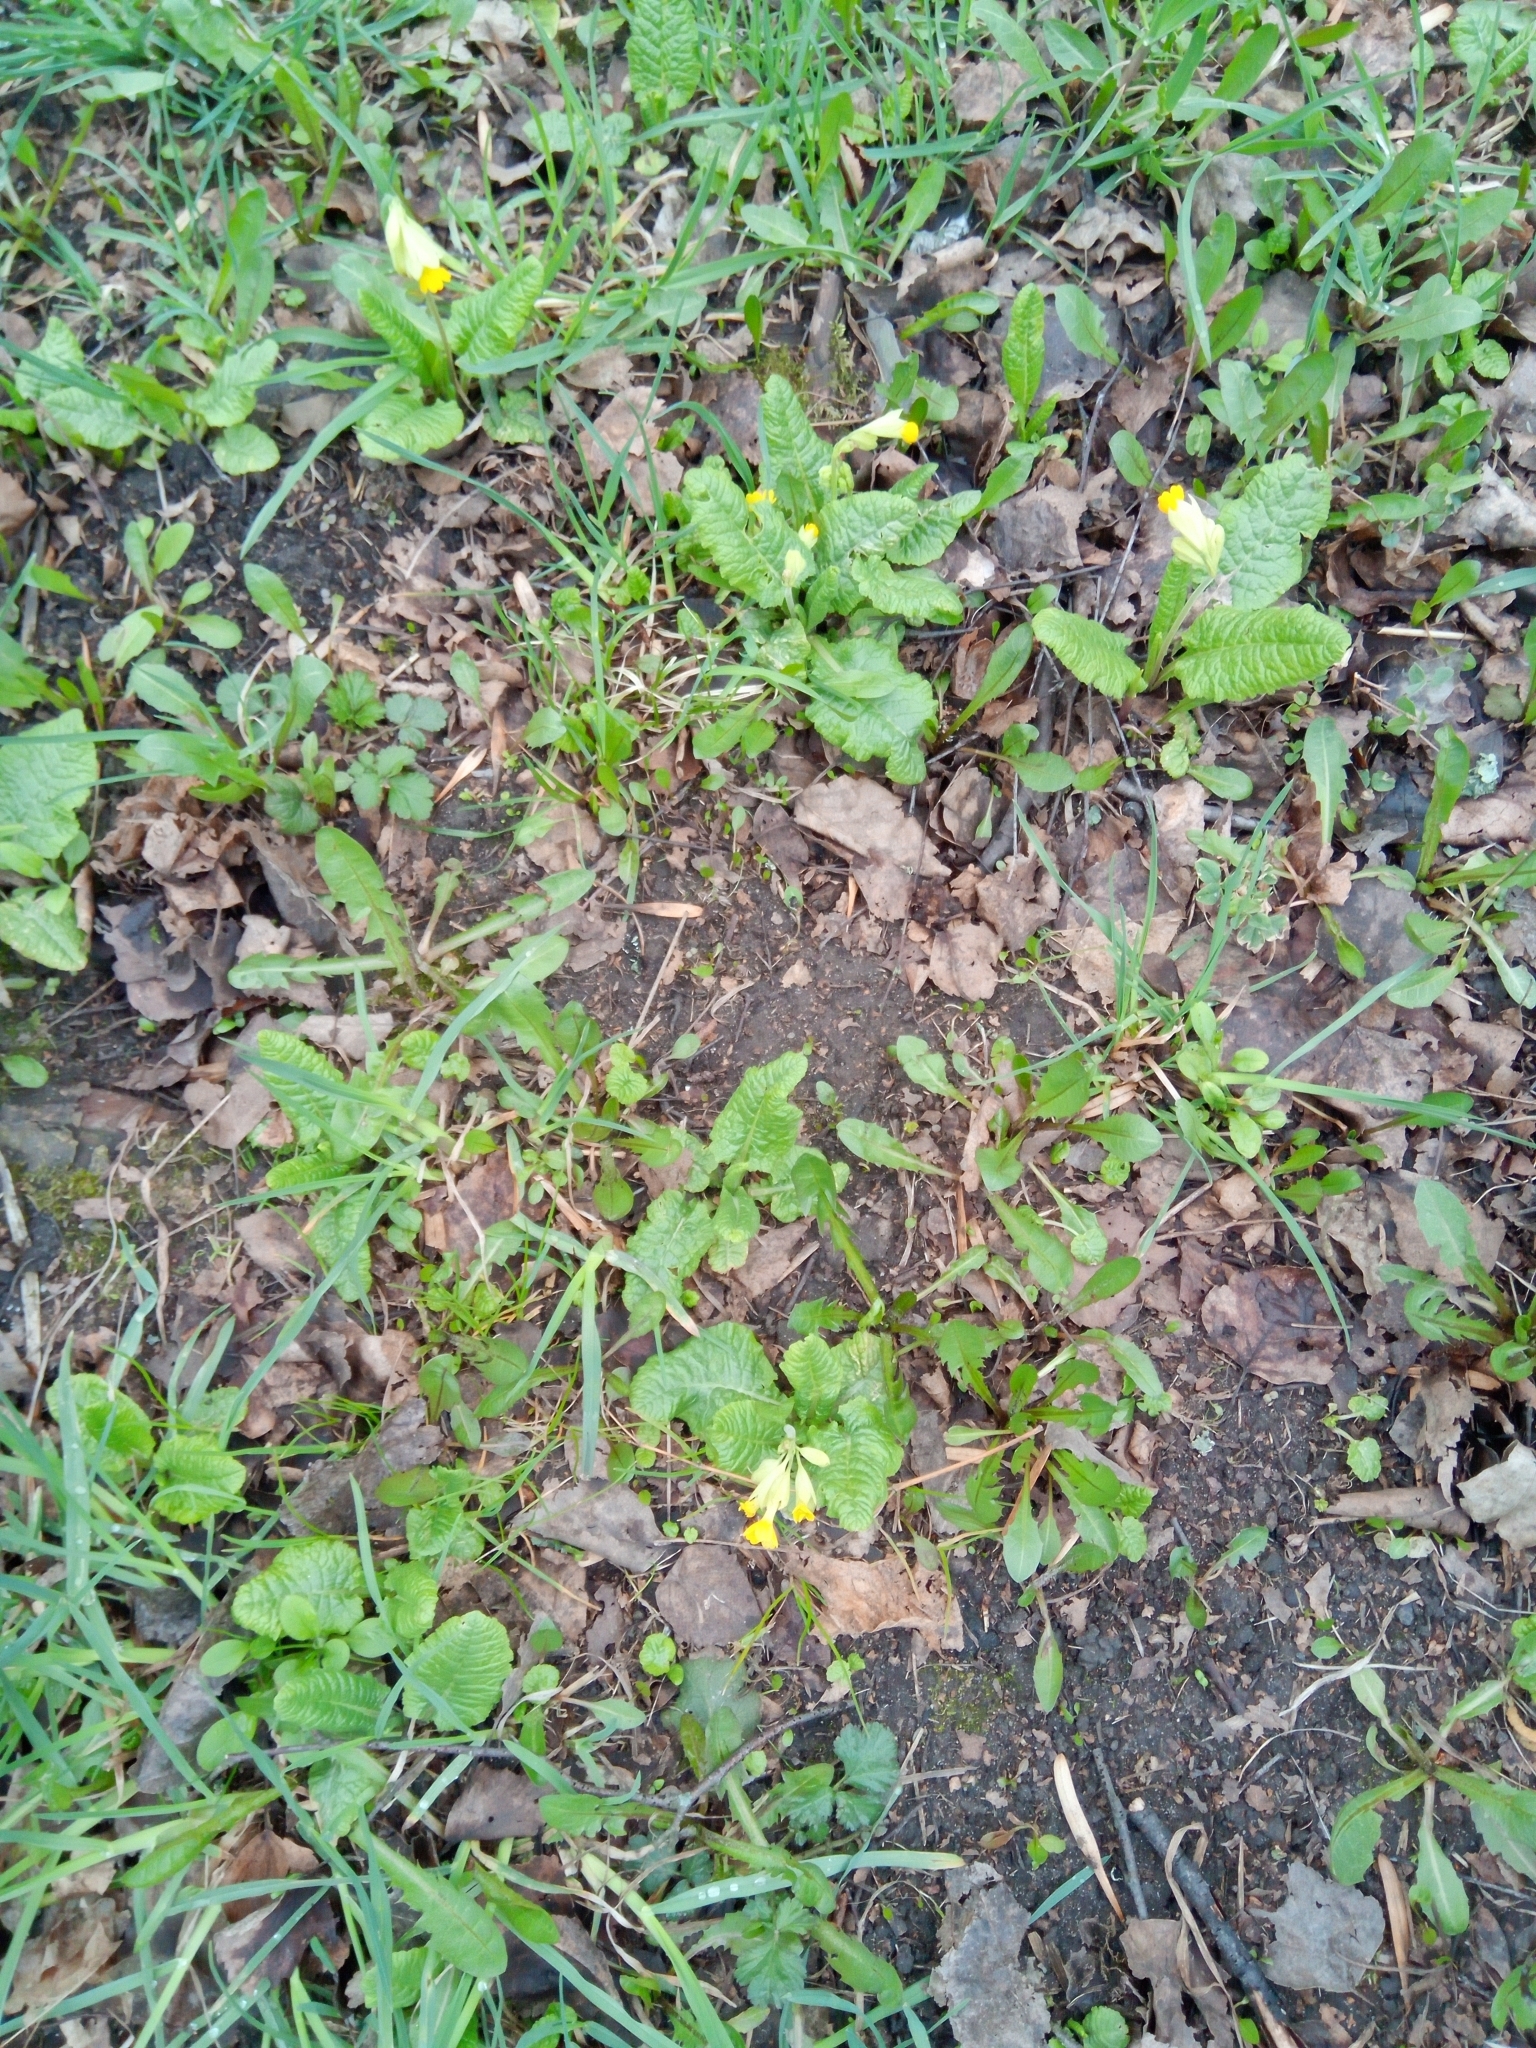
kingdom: Plantae
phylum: Tracheophyta
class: Magnoliopsida
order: Ericales
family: Primulaceae
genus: Primula
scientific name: Primula veris
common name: Cowslip
